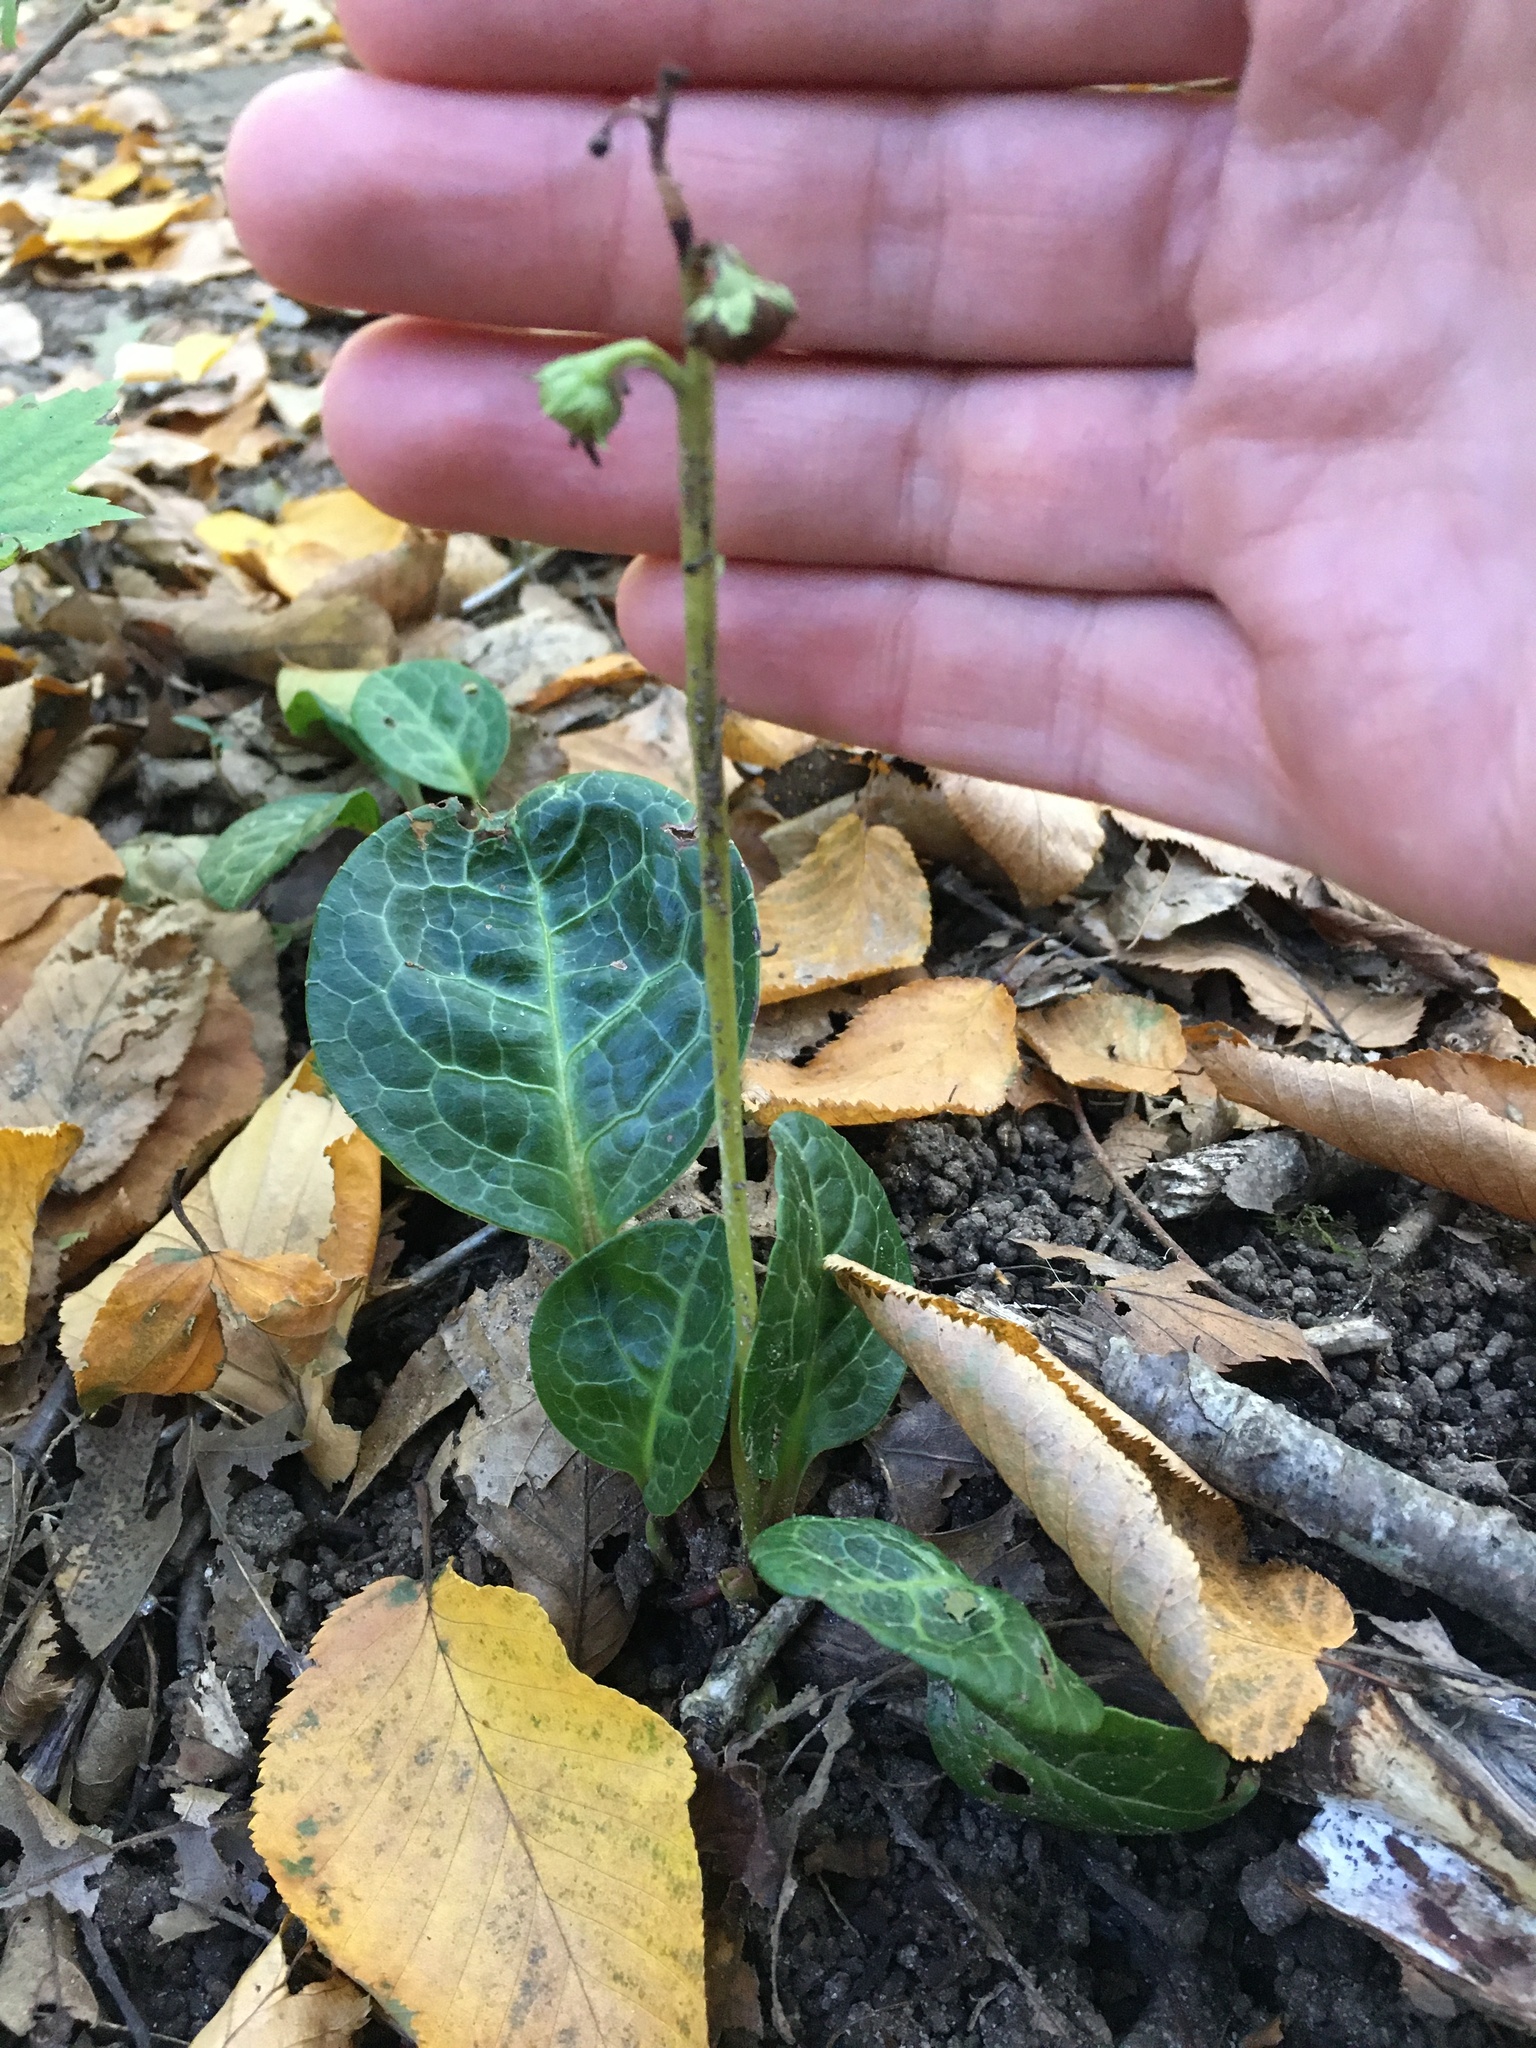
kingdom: Plantae
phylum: Tracheophyta
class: Magnoliopsida
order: Ericales
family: Ericaceae
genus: Pyrola
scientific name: Pyrola americana
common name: American wintergreen
